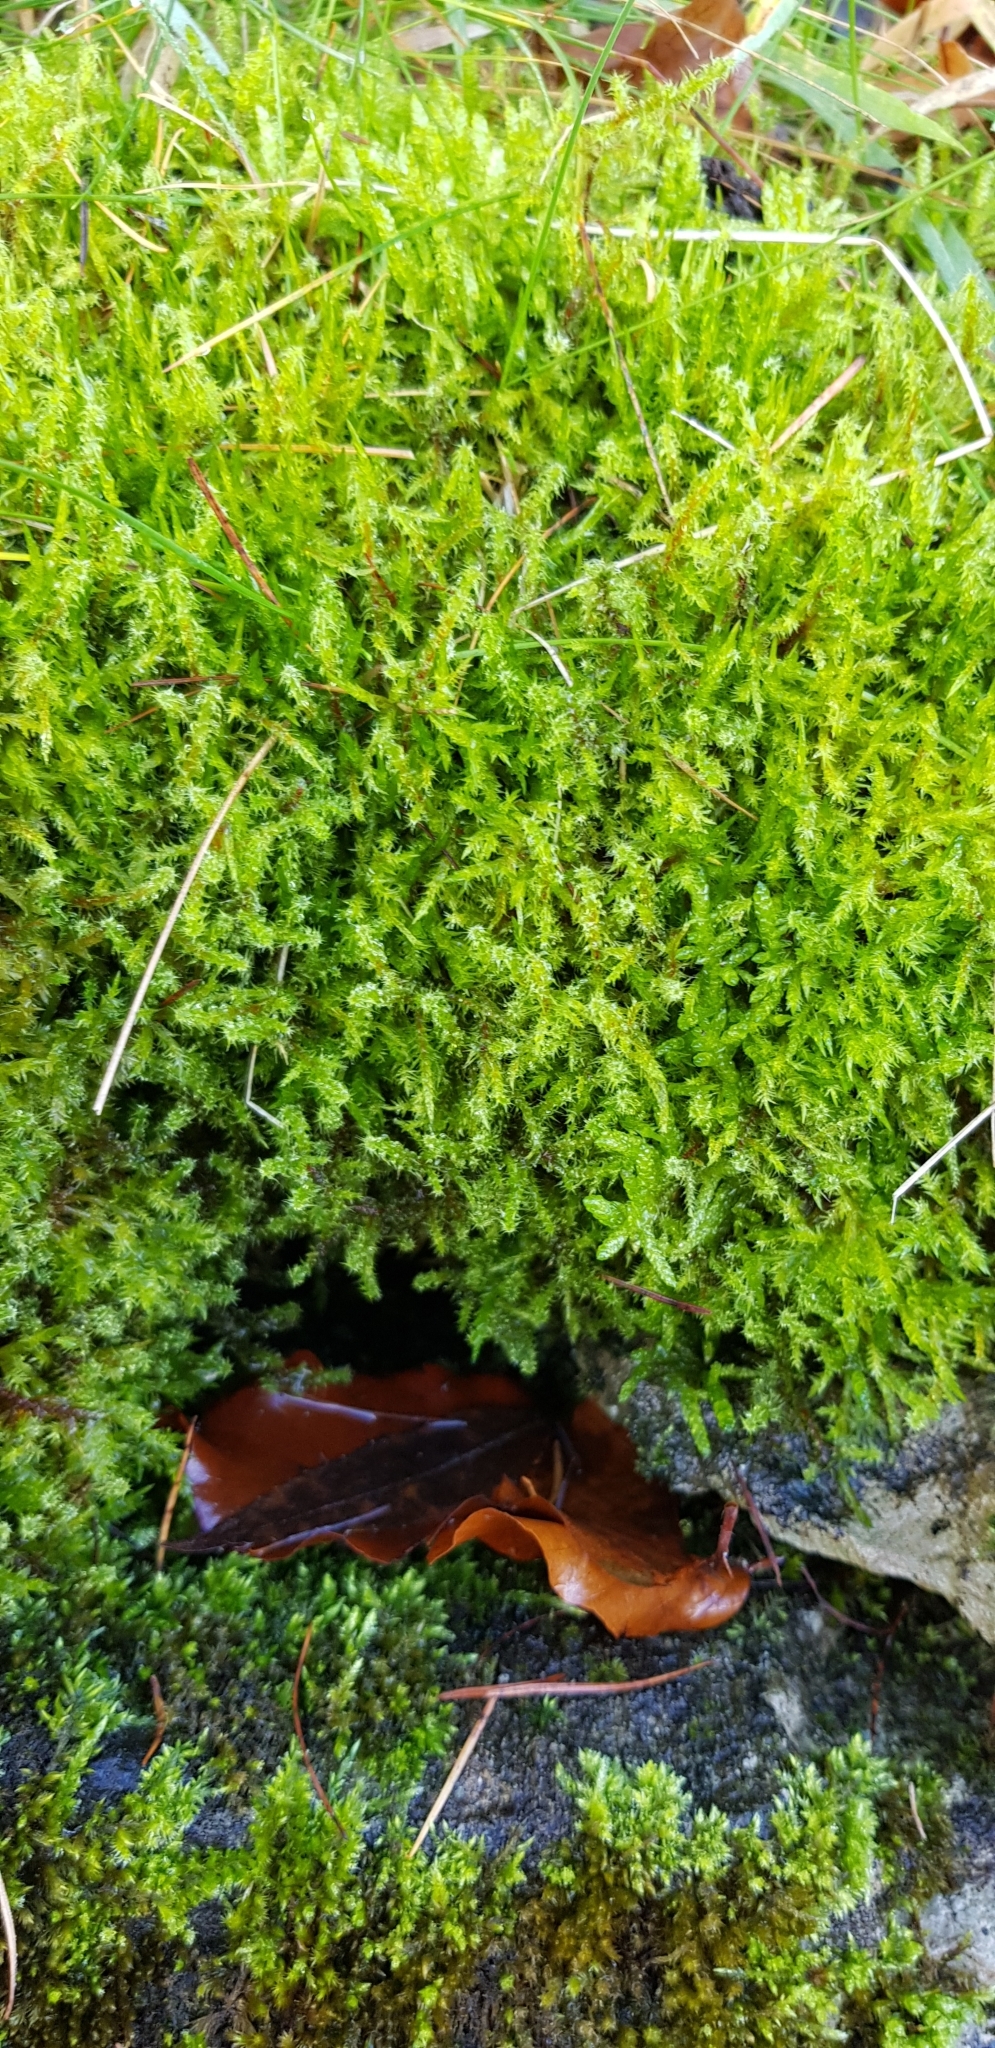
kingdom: Plantae
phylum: Bryophyta
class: Bryopsida
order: Hypnales
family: Hylocomiaceae
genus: Rhytidiadelphus
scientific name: Rhytidiadelphus squarrosus
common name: Springy turf-moss
